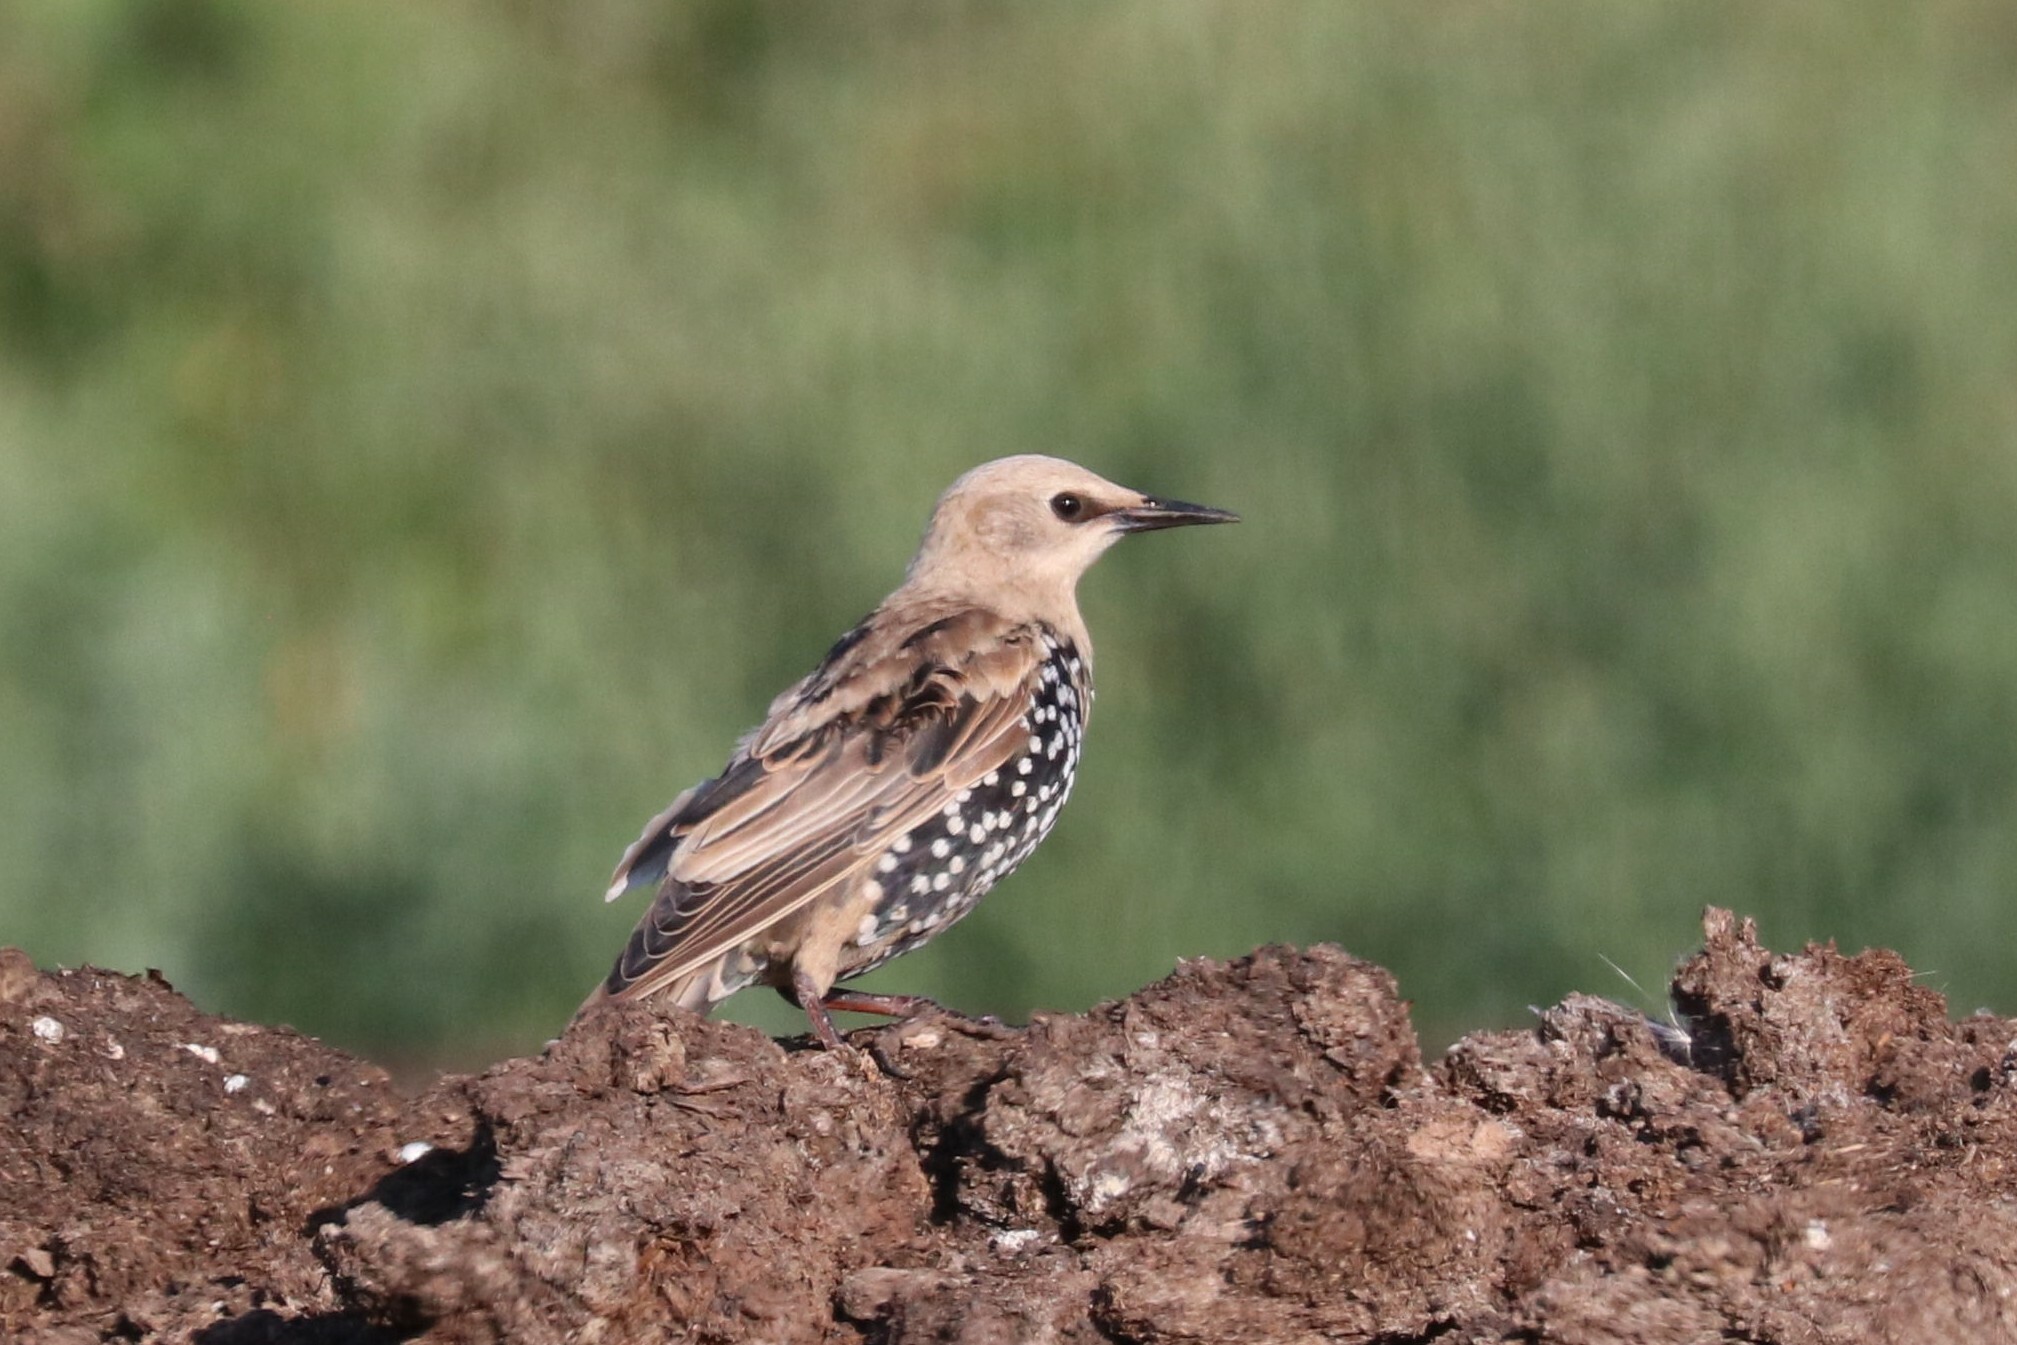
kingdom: Animalia
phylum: Chordata
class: Aves
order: Passeriformes
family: Sturnidae
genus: Sturnus
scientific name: Sturnus vulgaris
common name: Common starling
